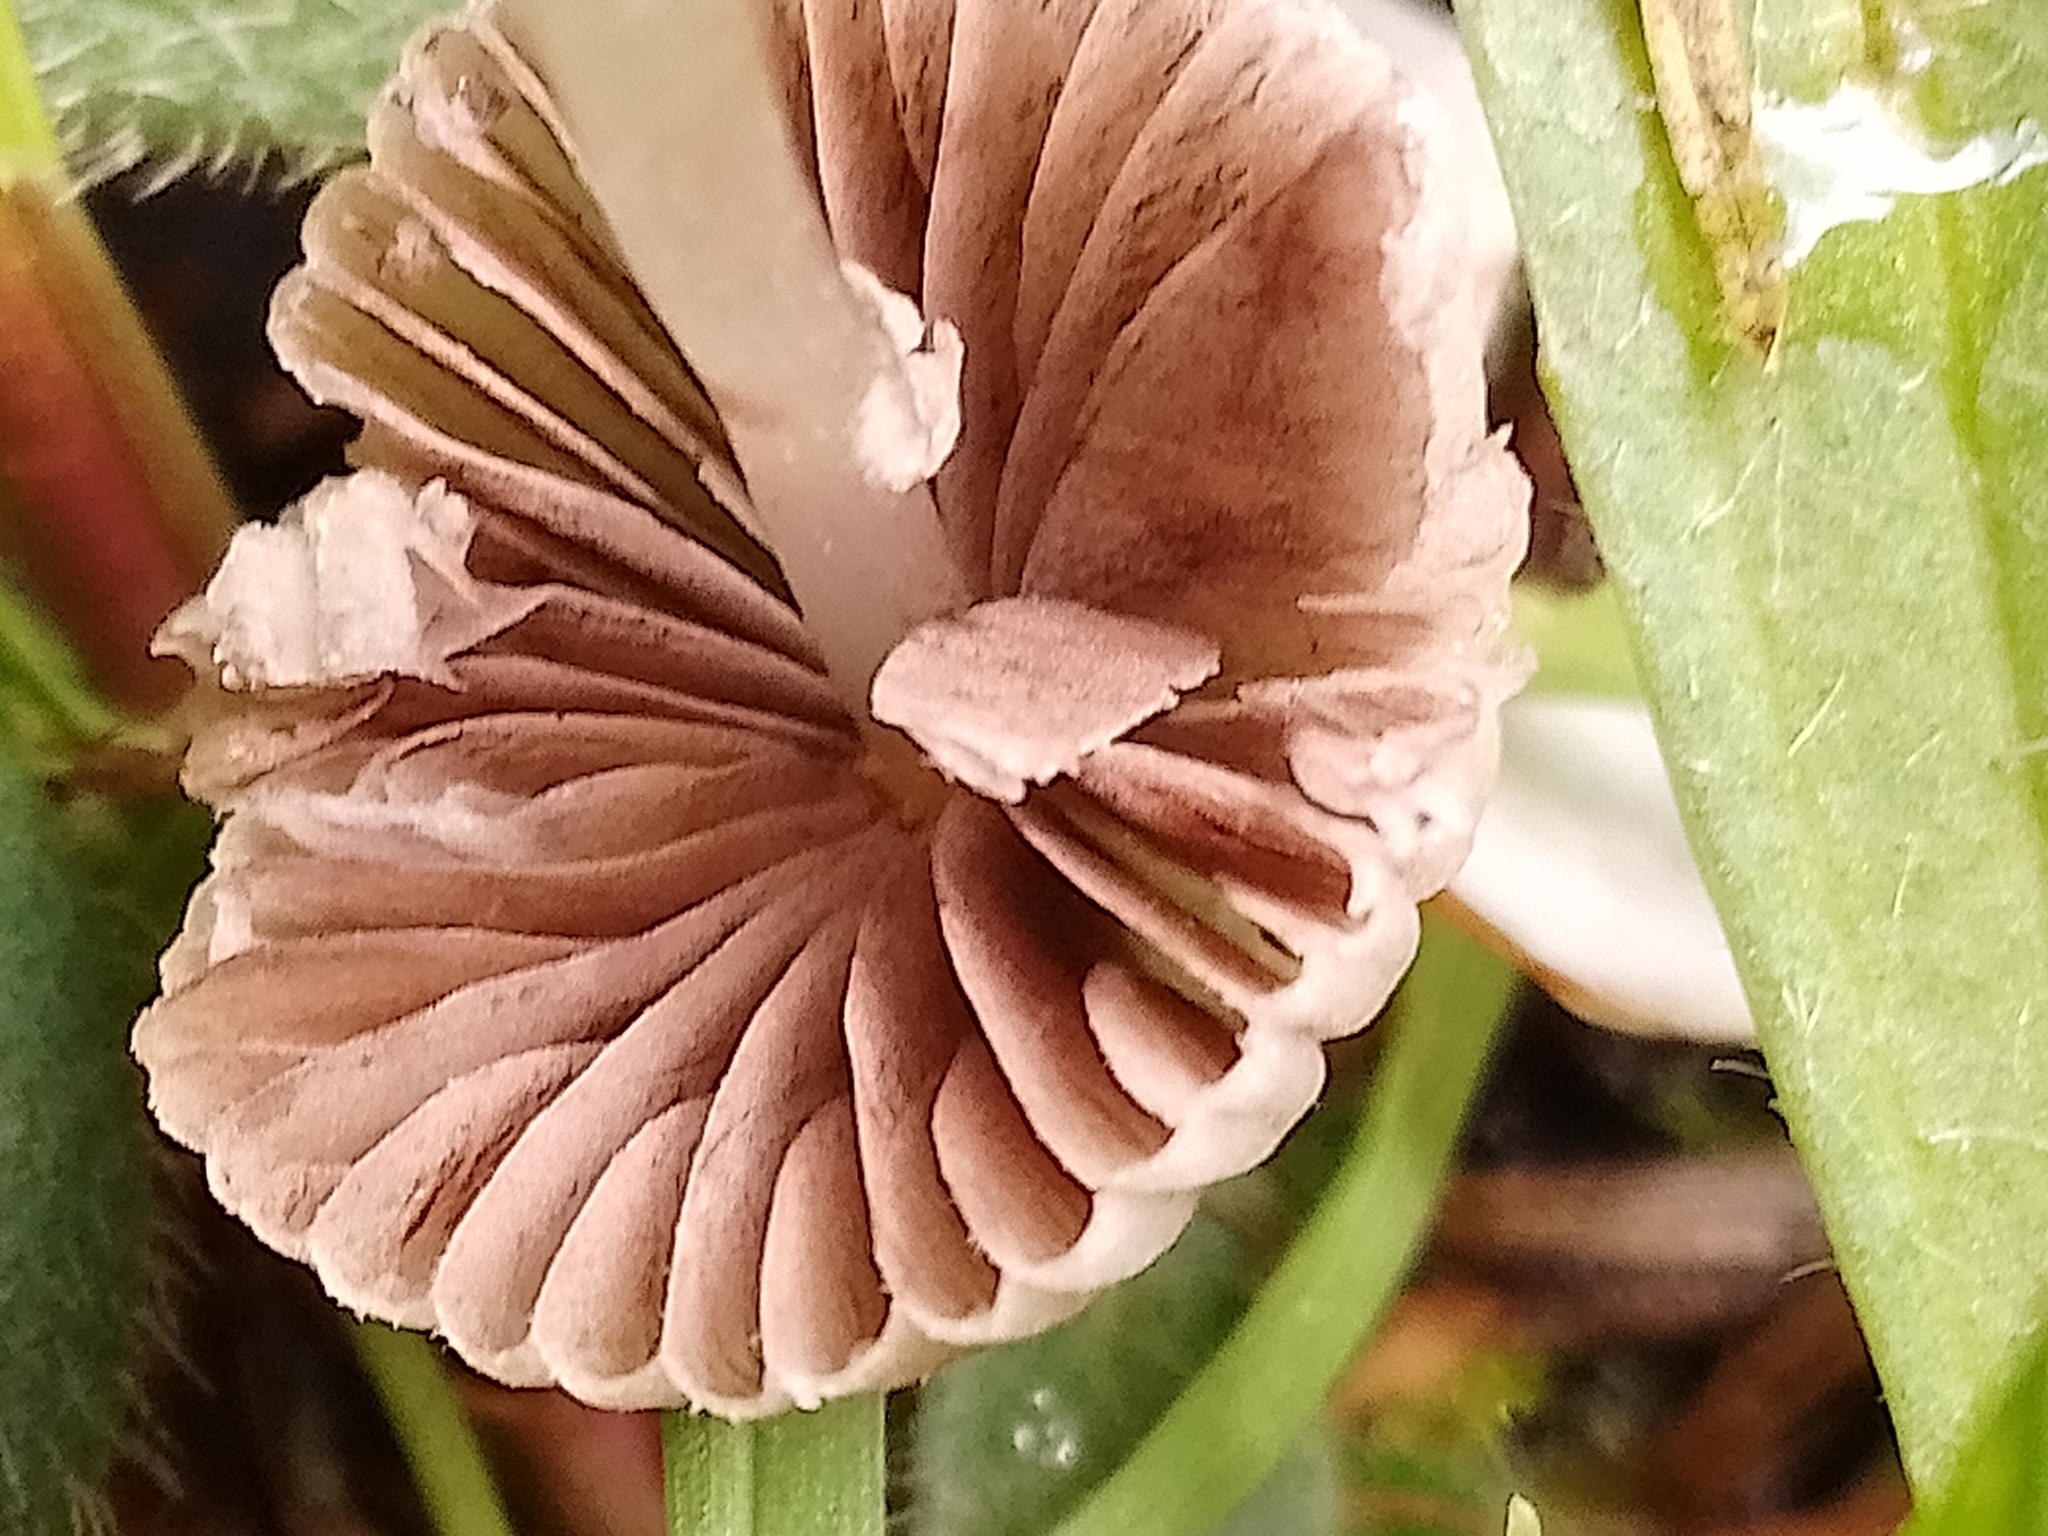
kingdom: Fungi
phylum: Basidiomycota
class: Agaricomycetes
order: Agaricales
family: Psathyrellaceae
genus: Coprinellus
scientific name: Coprinellus disseminatus
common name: Fairies' bonnets
